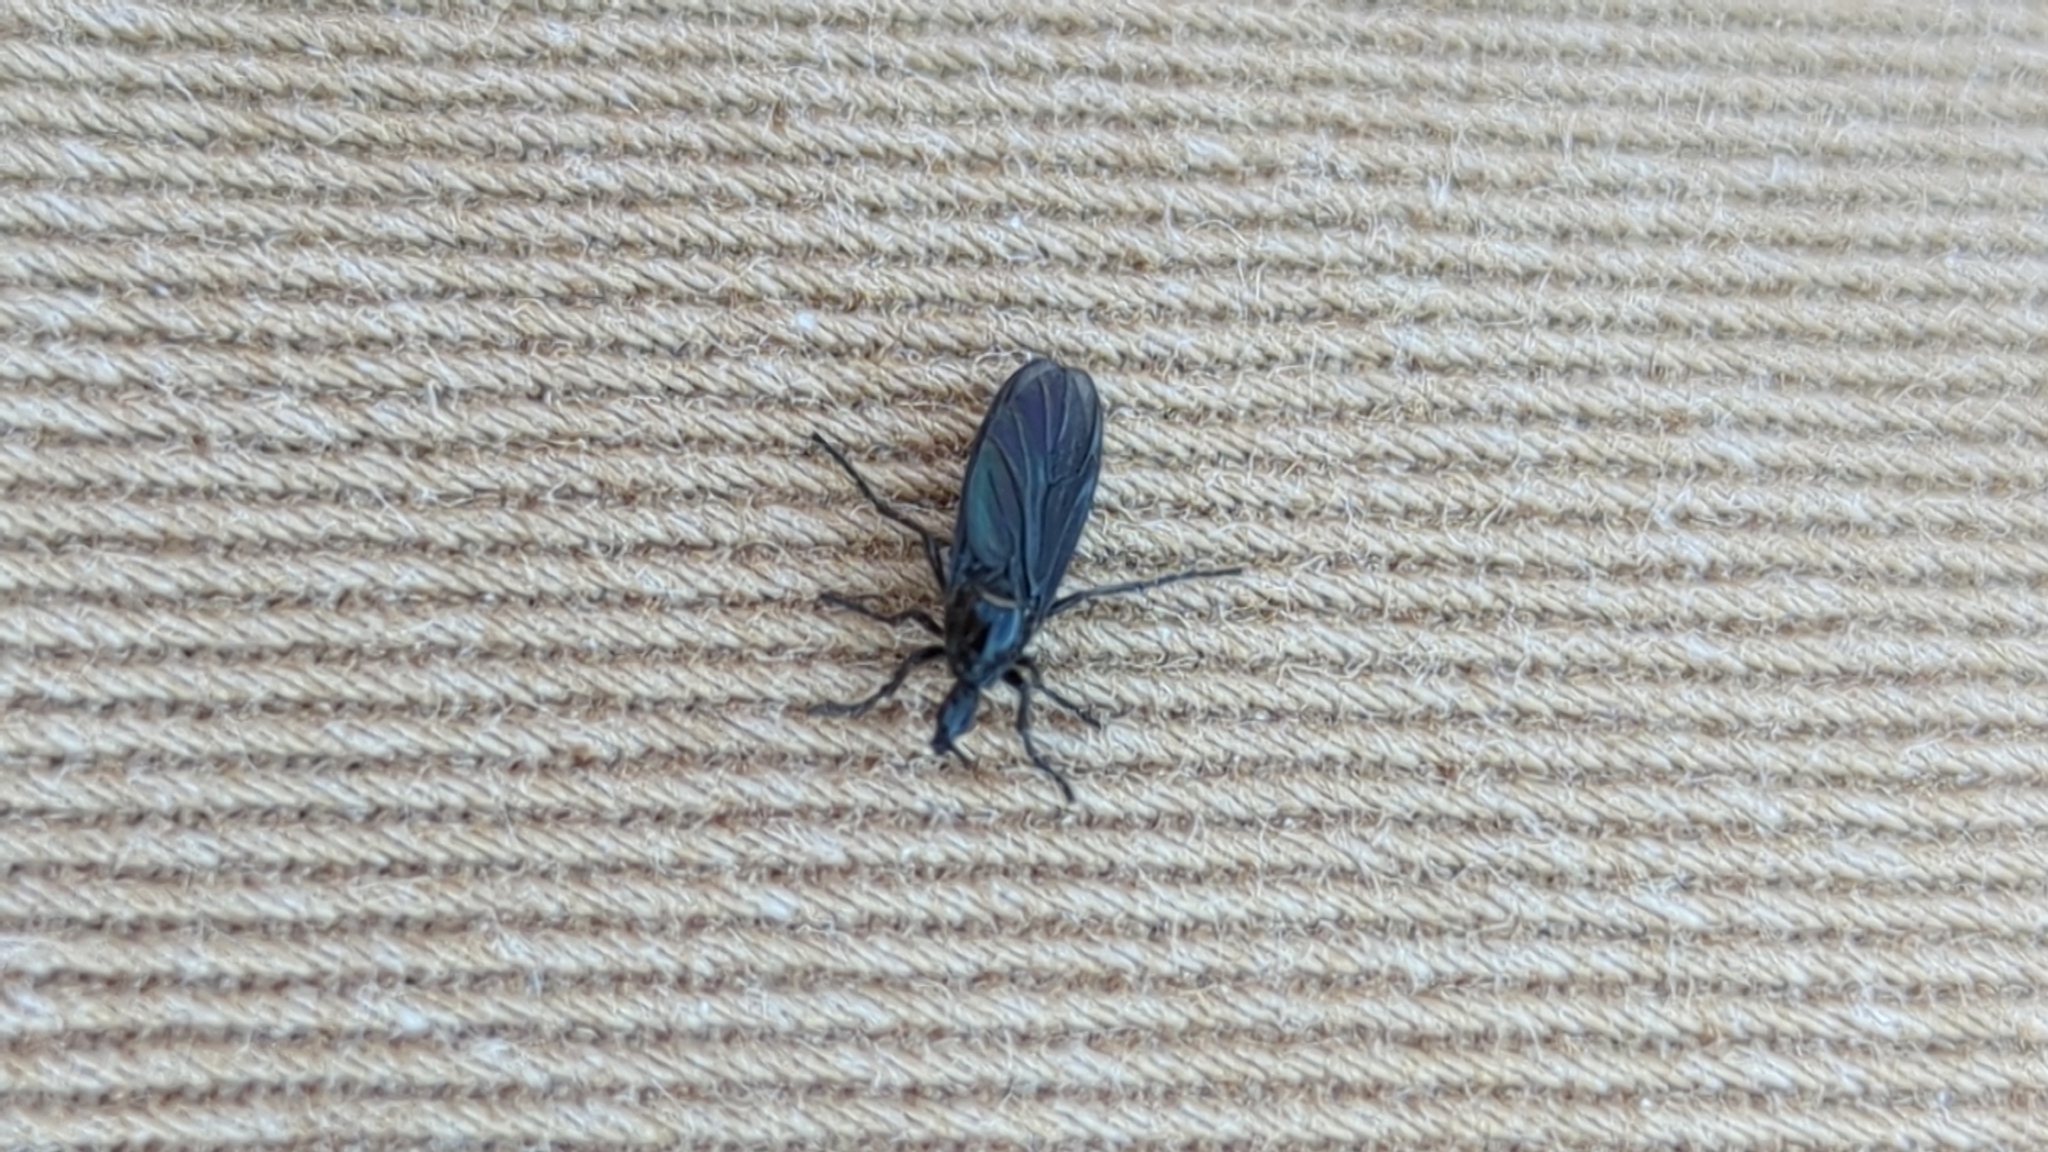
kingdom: Animalia
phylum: Arthropoda
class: Insecta
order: Diptera
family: Bibionidae
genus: Dilophus
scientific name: Dilophus orbatus
